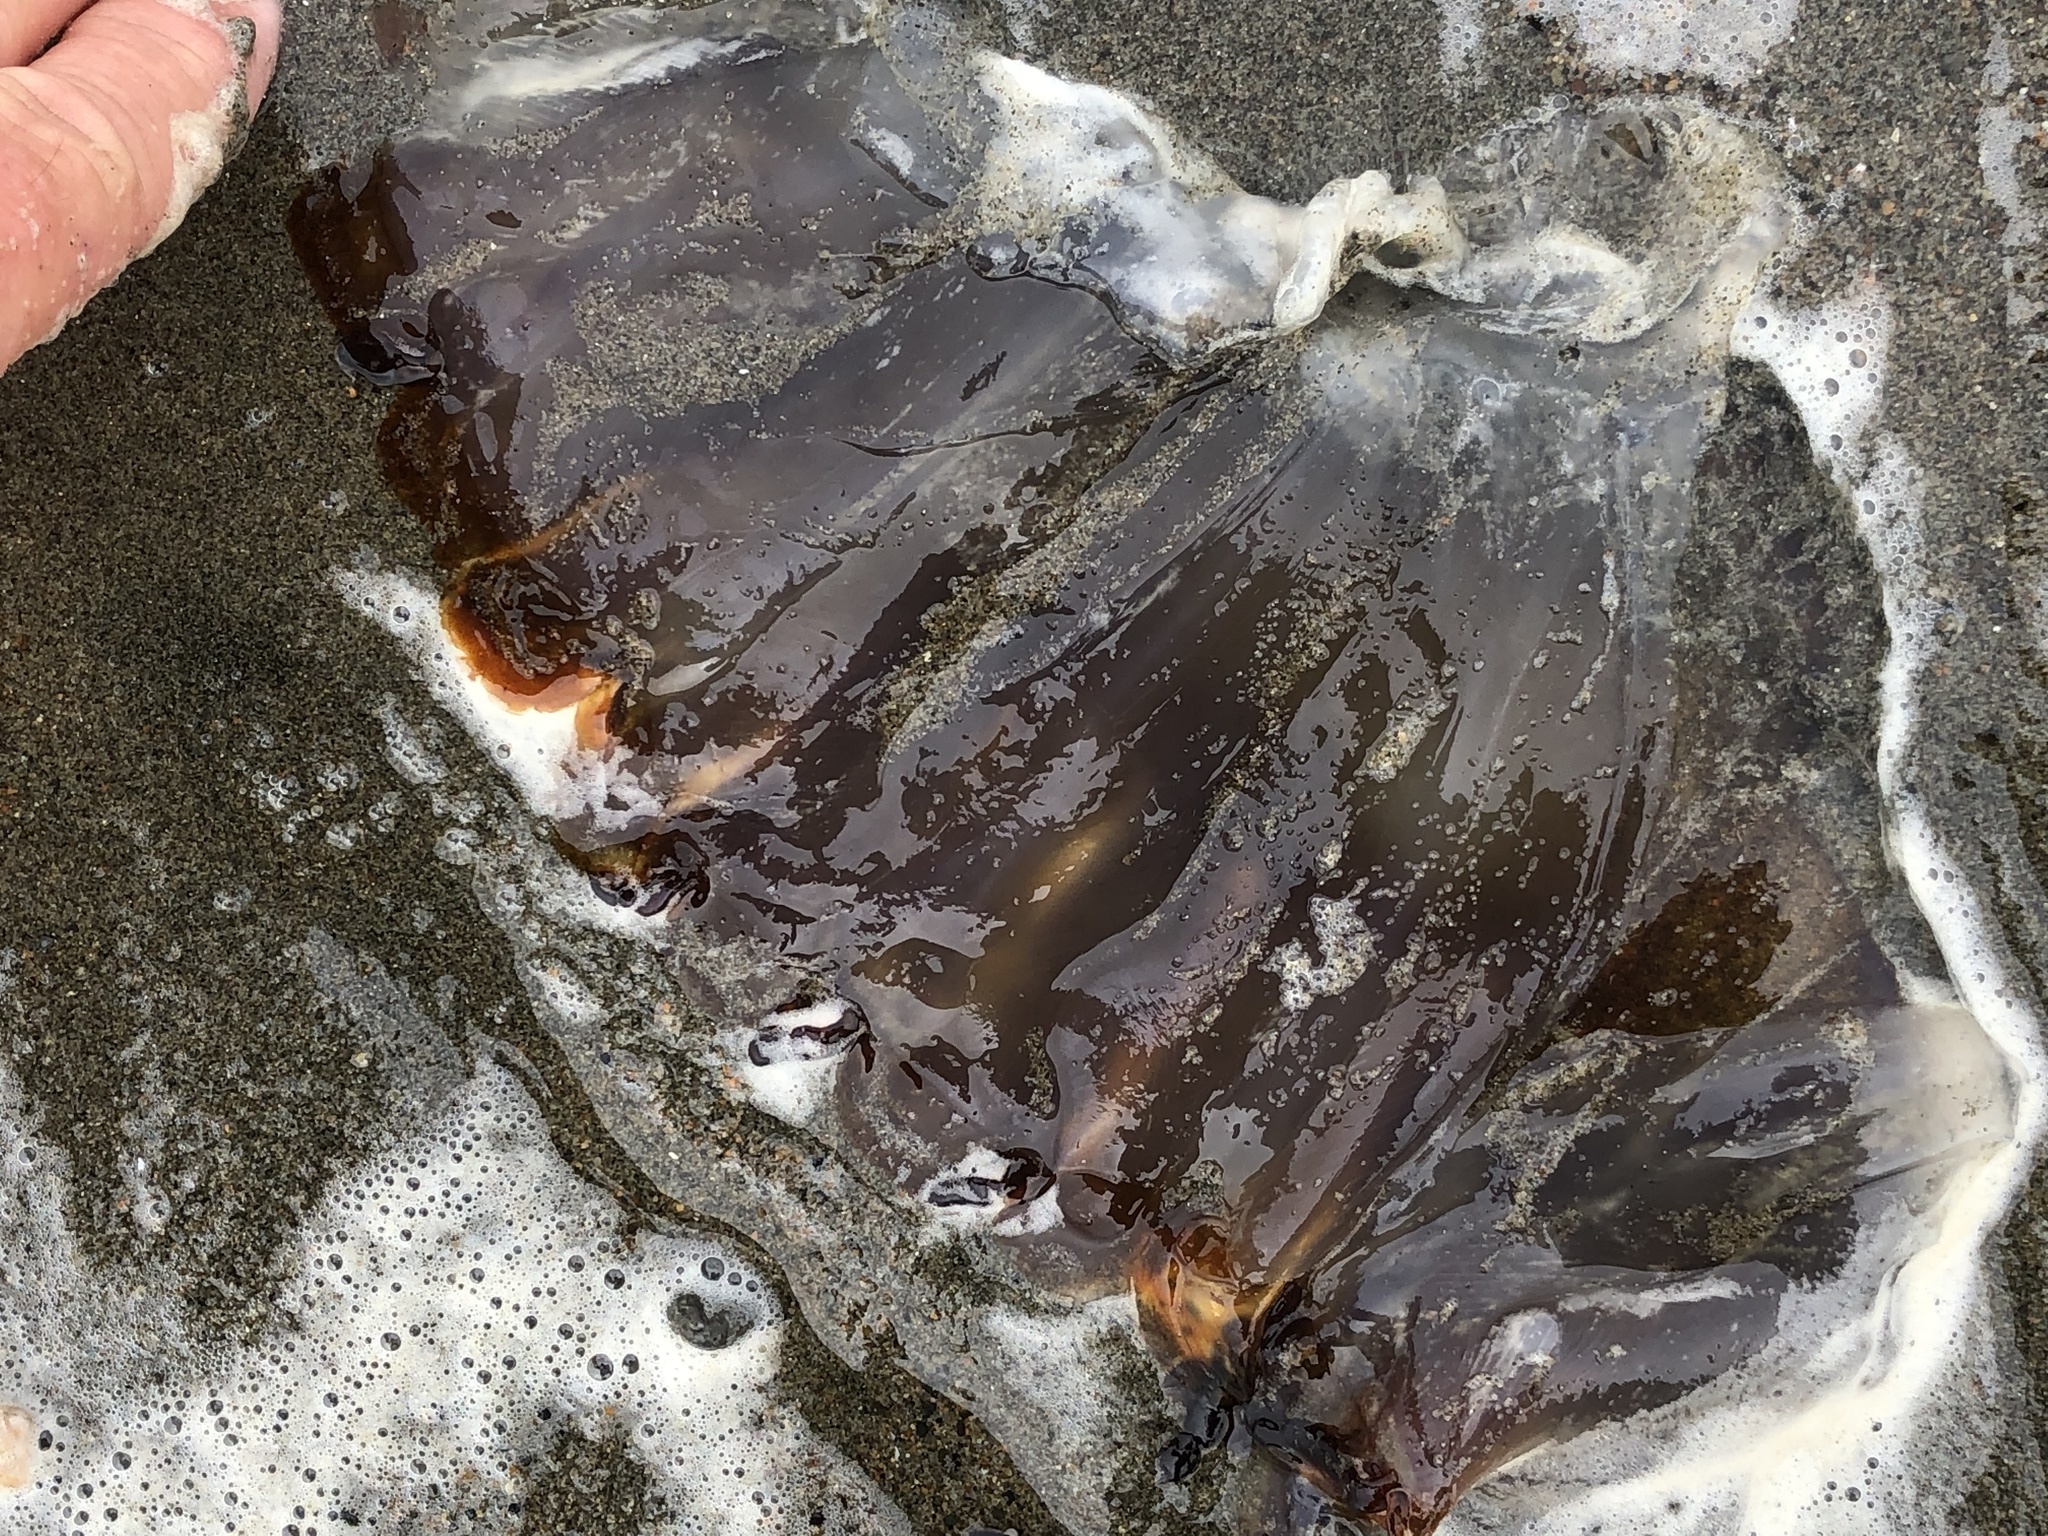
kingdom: Animalia
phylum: Cnidaria
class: Scyphozoa
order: Semaeostomeae
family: Pelagiidae
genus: Chrysaora
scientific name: Chrysaora fuscescens
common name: Sea nettle
